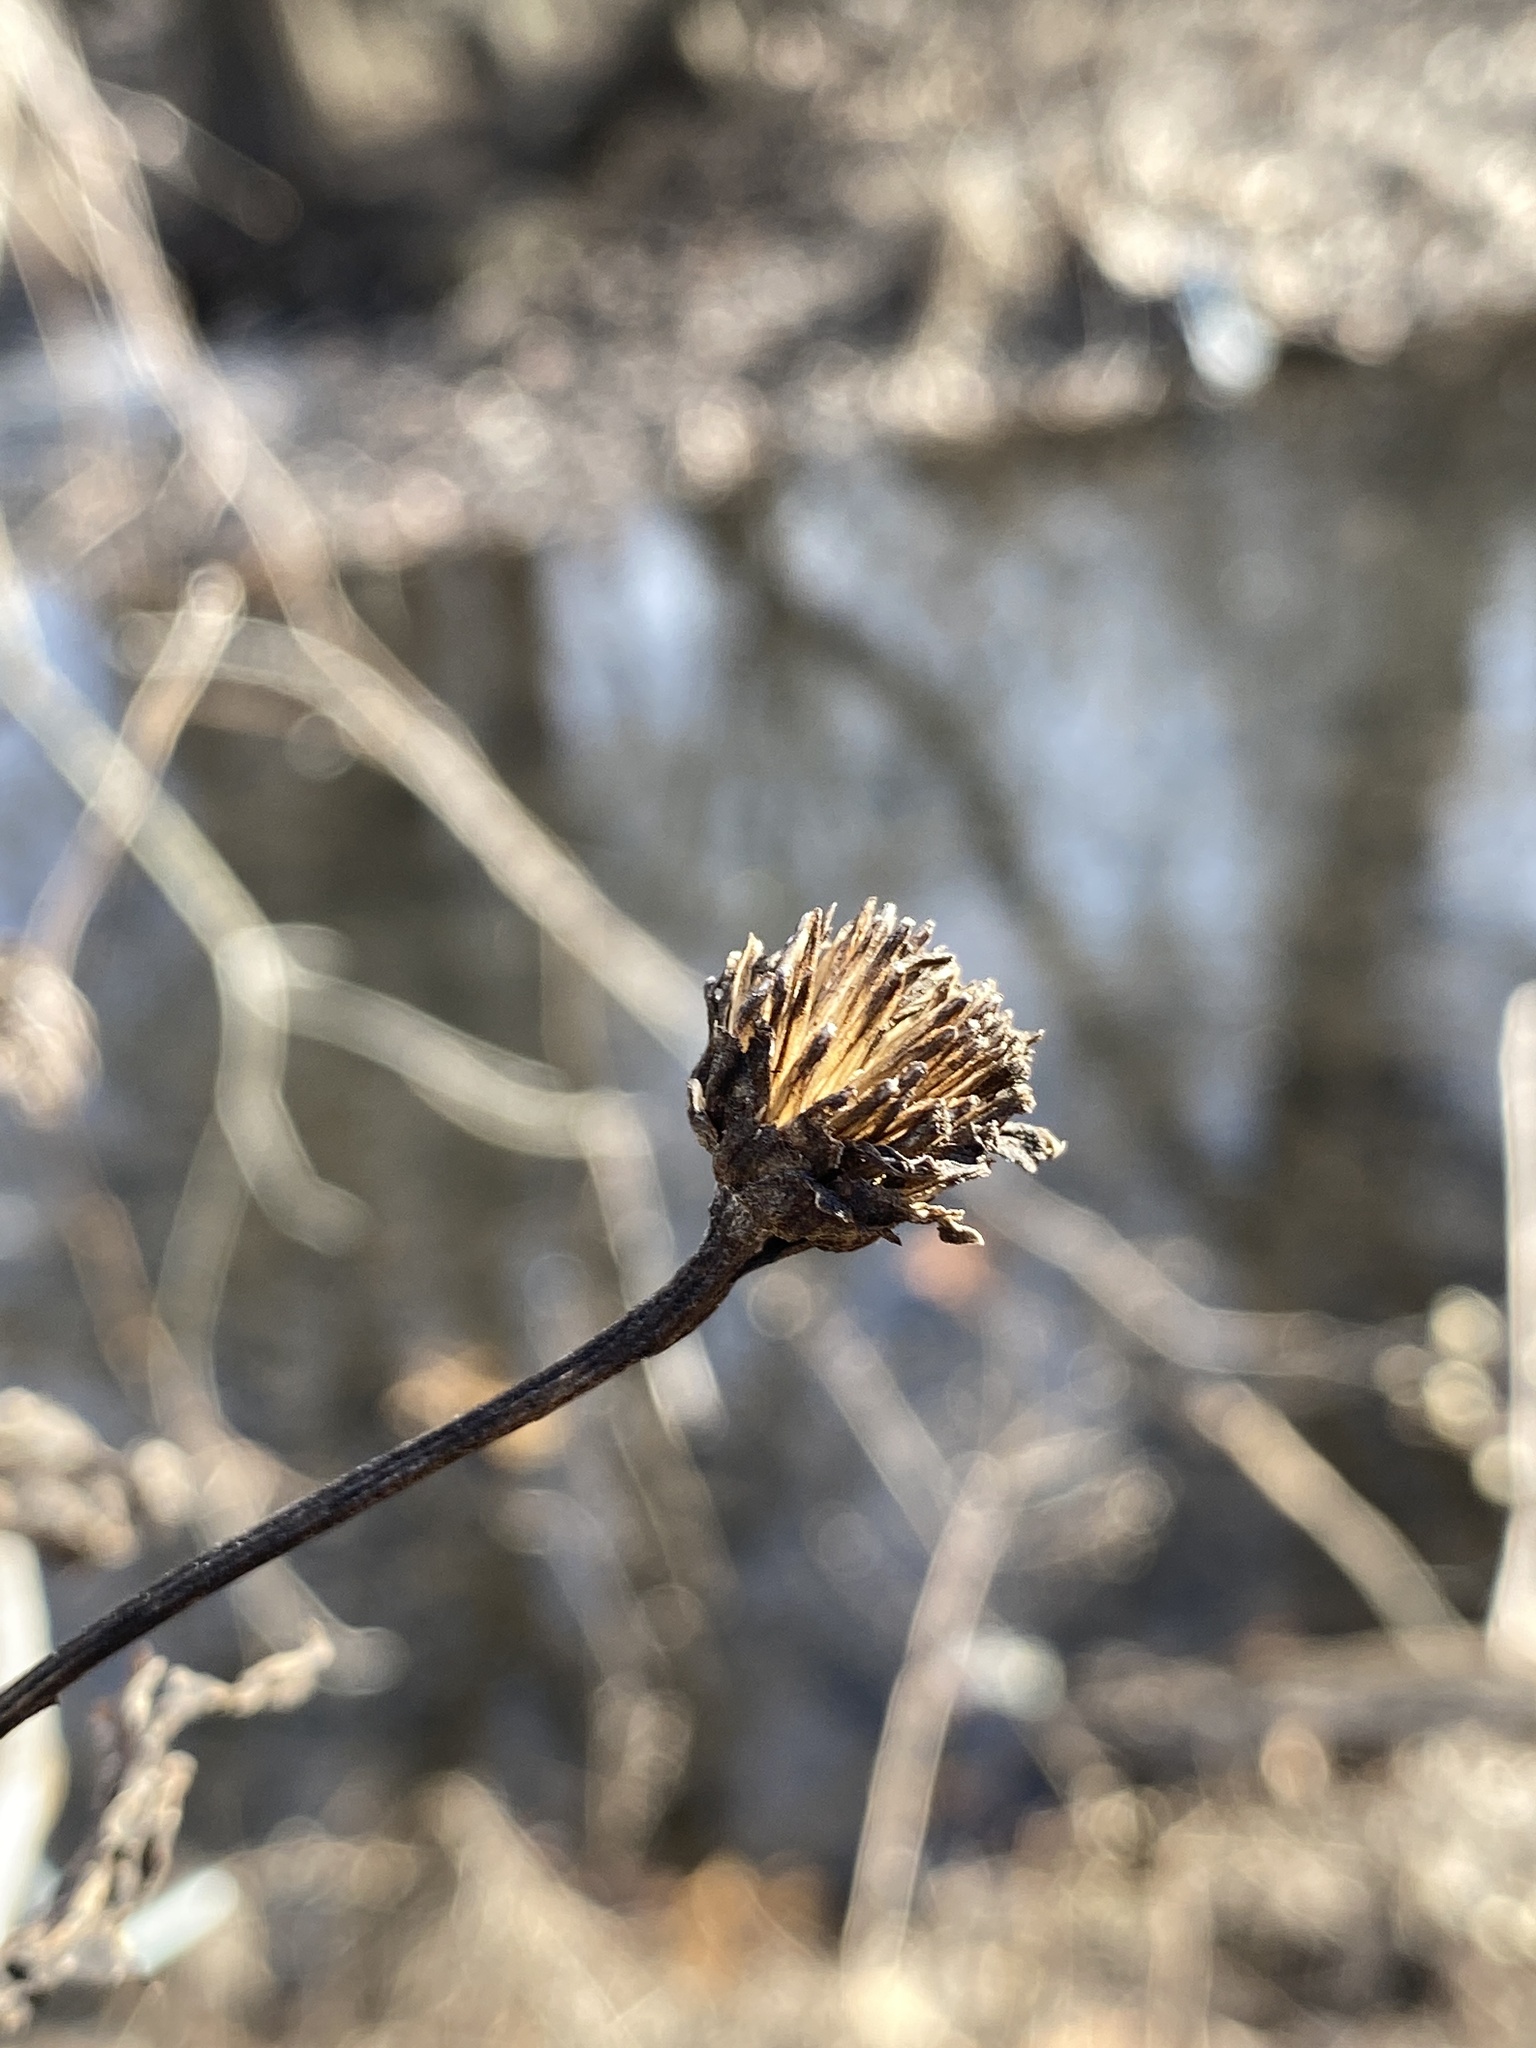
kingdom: Plantae
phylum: Tracheophyta
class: Magnoliopsida
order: Asterales
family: Asteraceae
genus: Heliopsis
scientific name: Heliopsis helianthoides
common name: False sunflower
